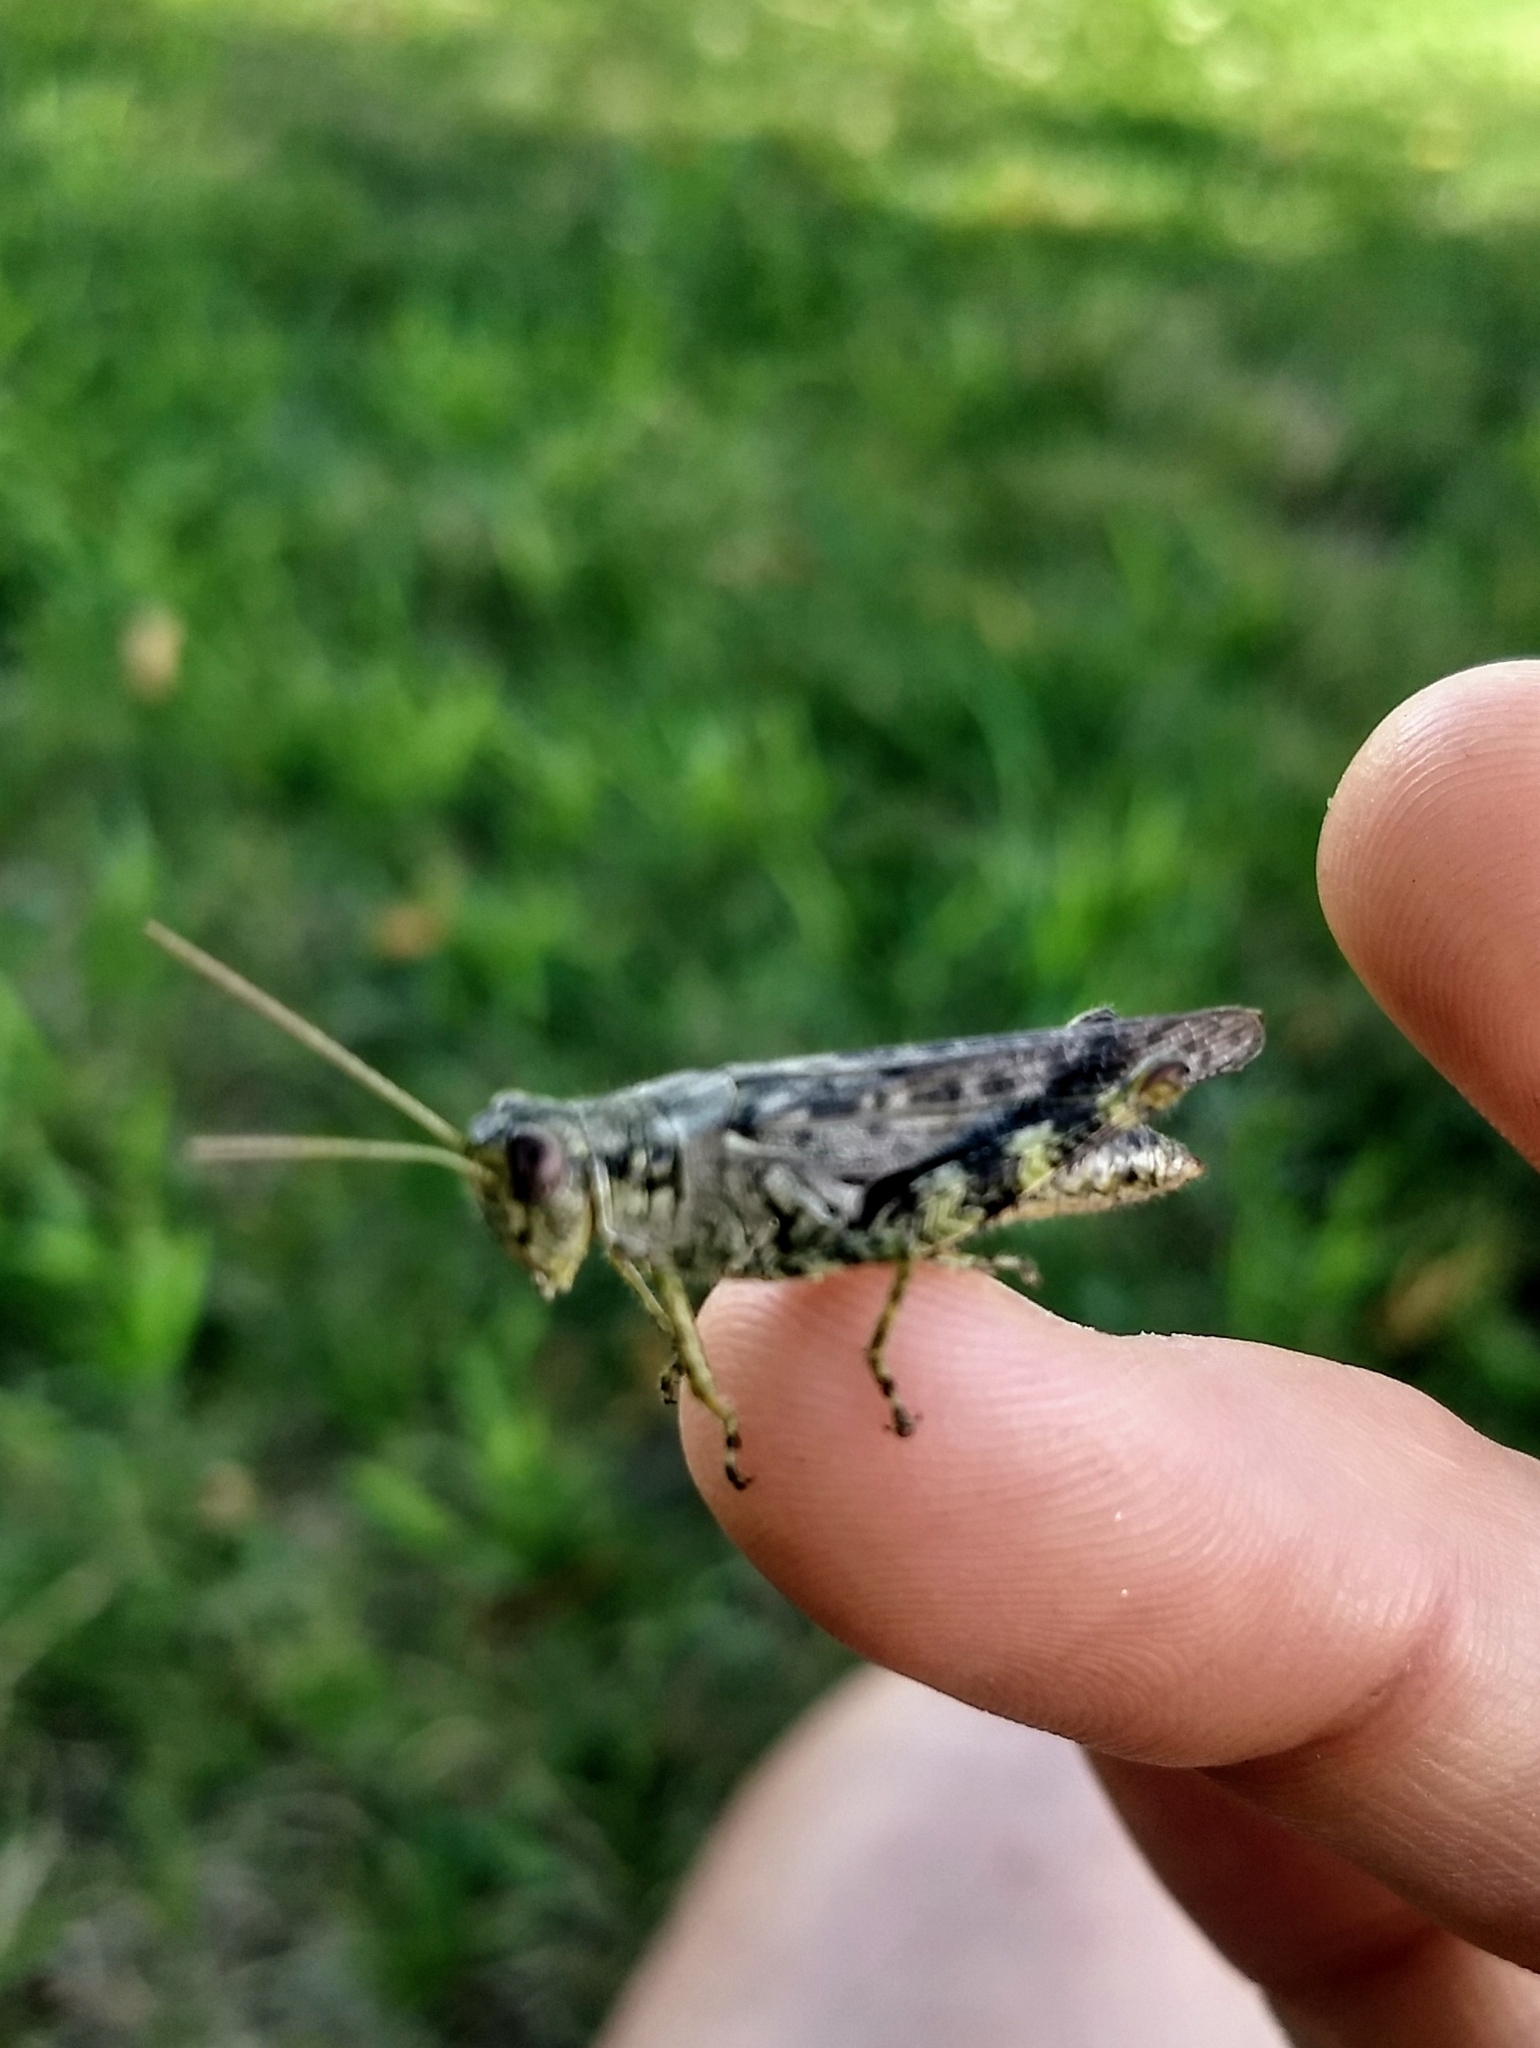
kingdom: Animalia
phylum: Arthropoda
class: Insecta
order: Orthoptera
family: Acrididae
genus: Melanoplus
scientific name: Melanoplus punctulatus
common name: Pine-tree spur-throat grasshopper
